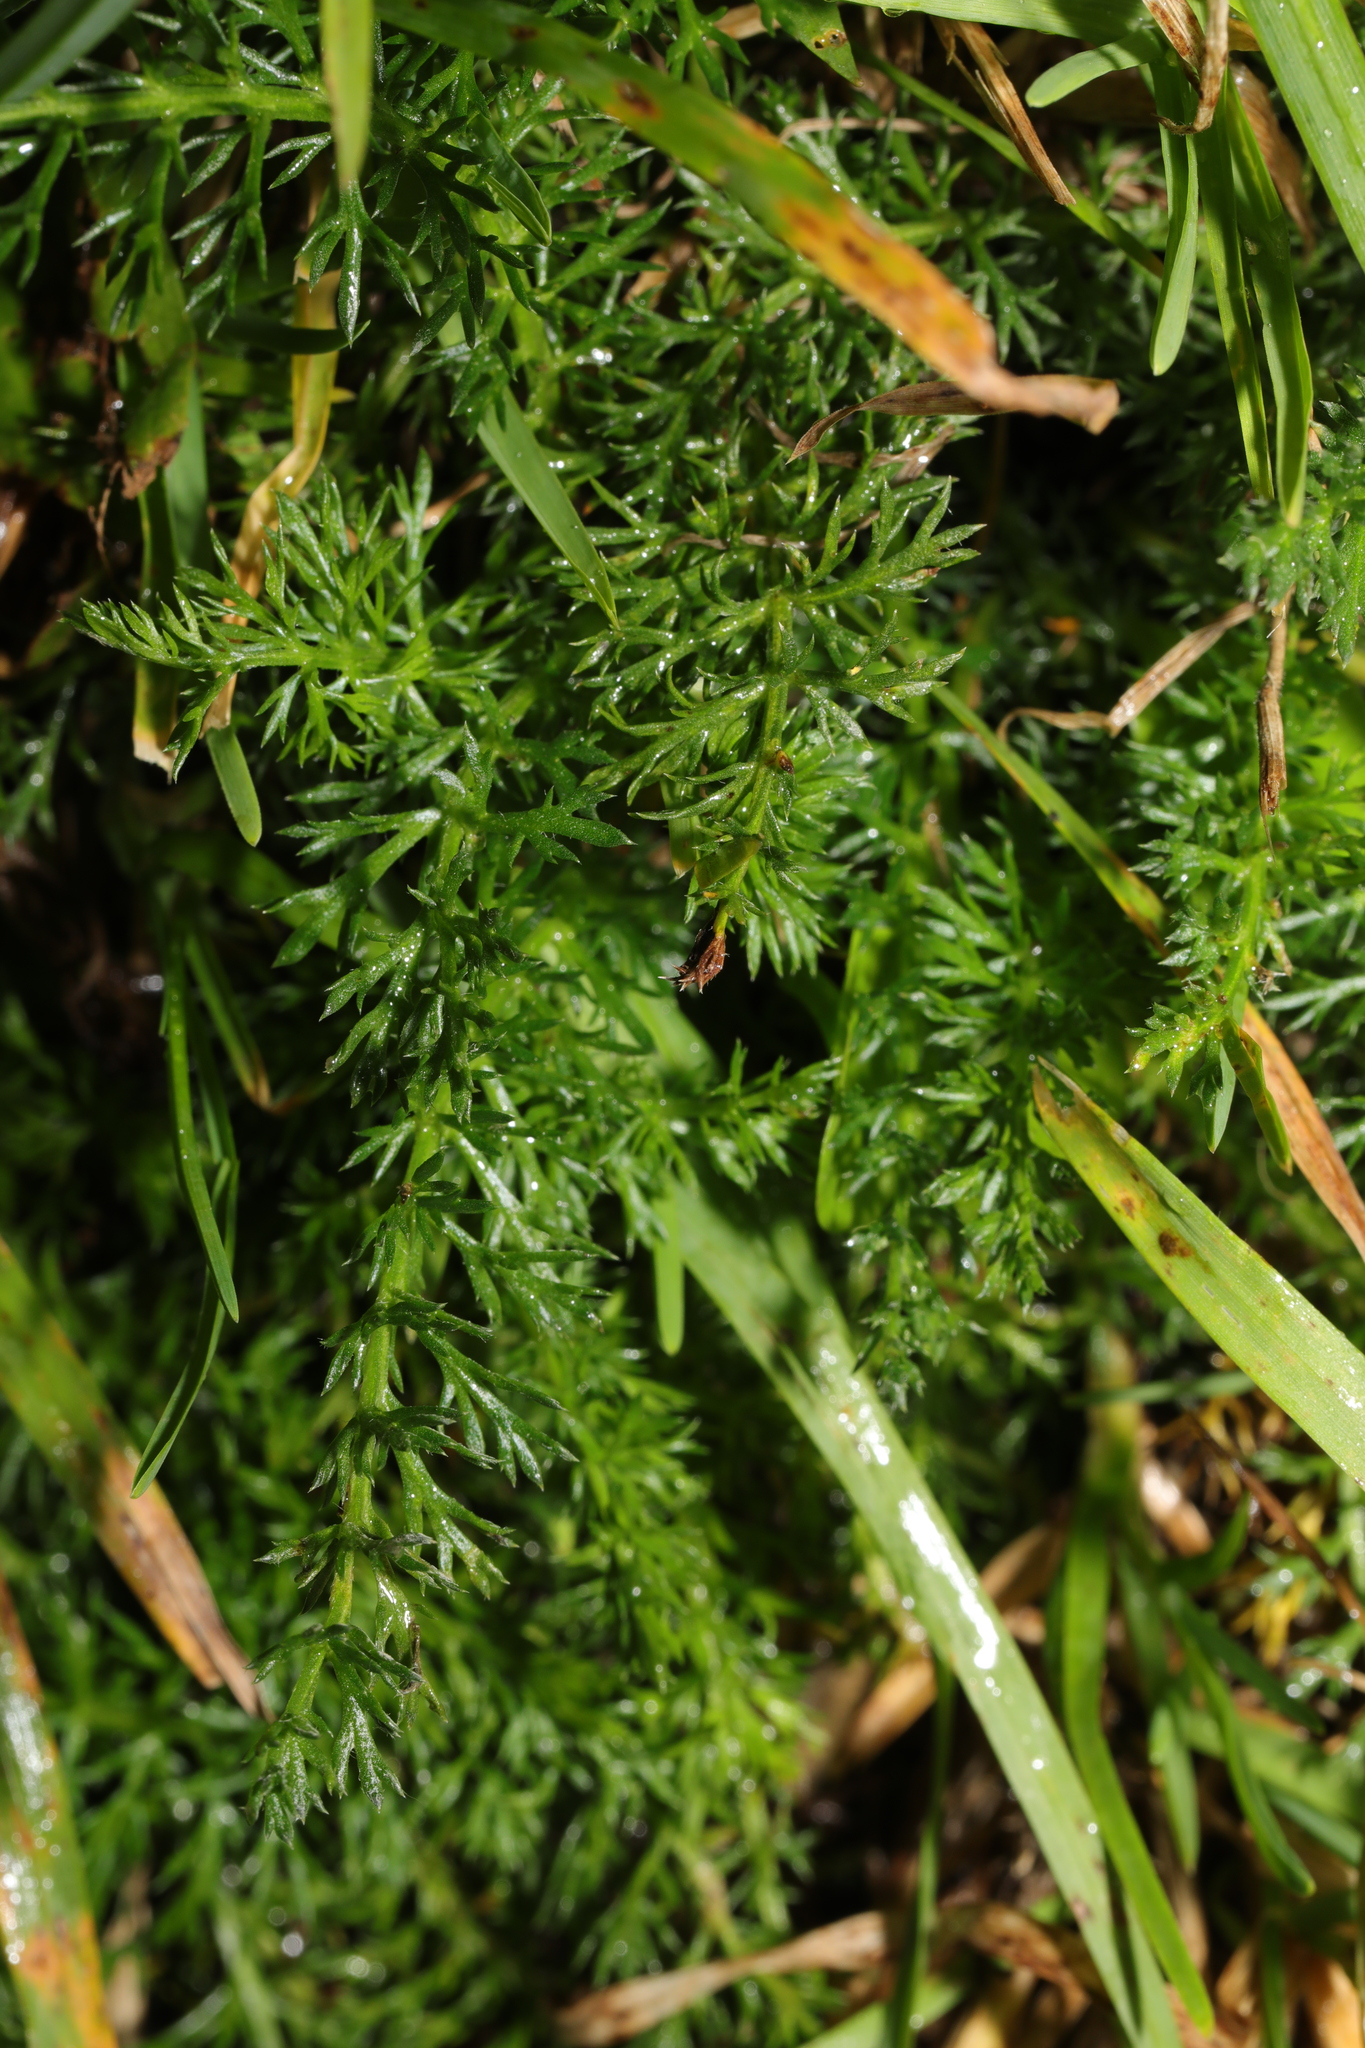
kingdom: Plantae
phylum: Tracheophyta
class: Magnoliopsida
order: Asterales
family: Asteraceae
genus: Achillea
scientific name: Achillea millefolium
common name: Yarrow
